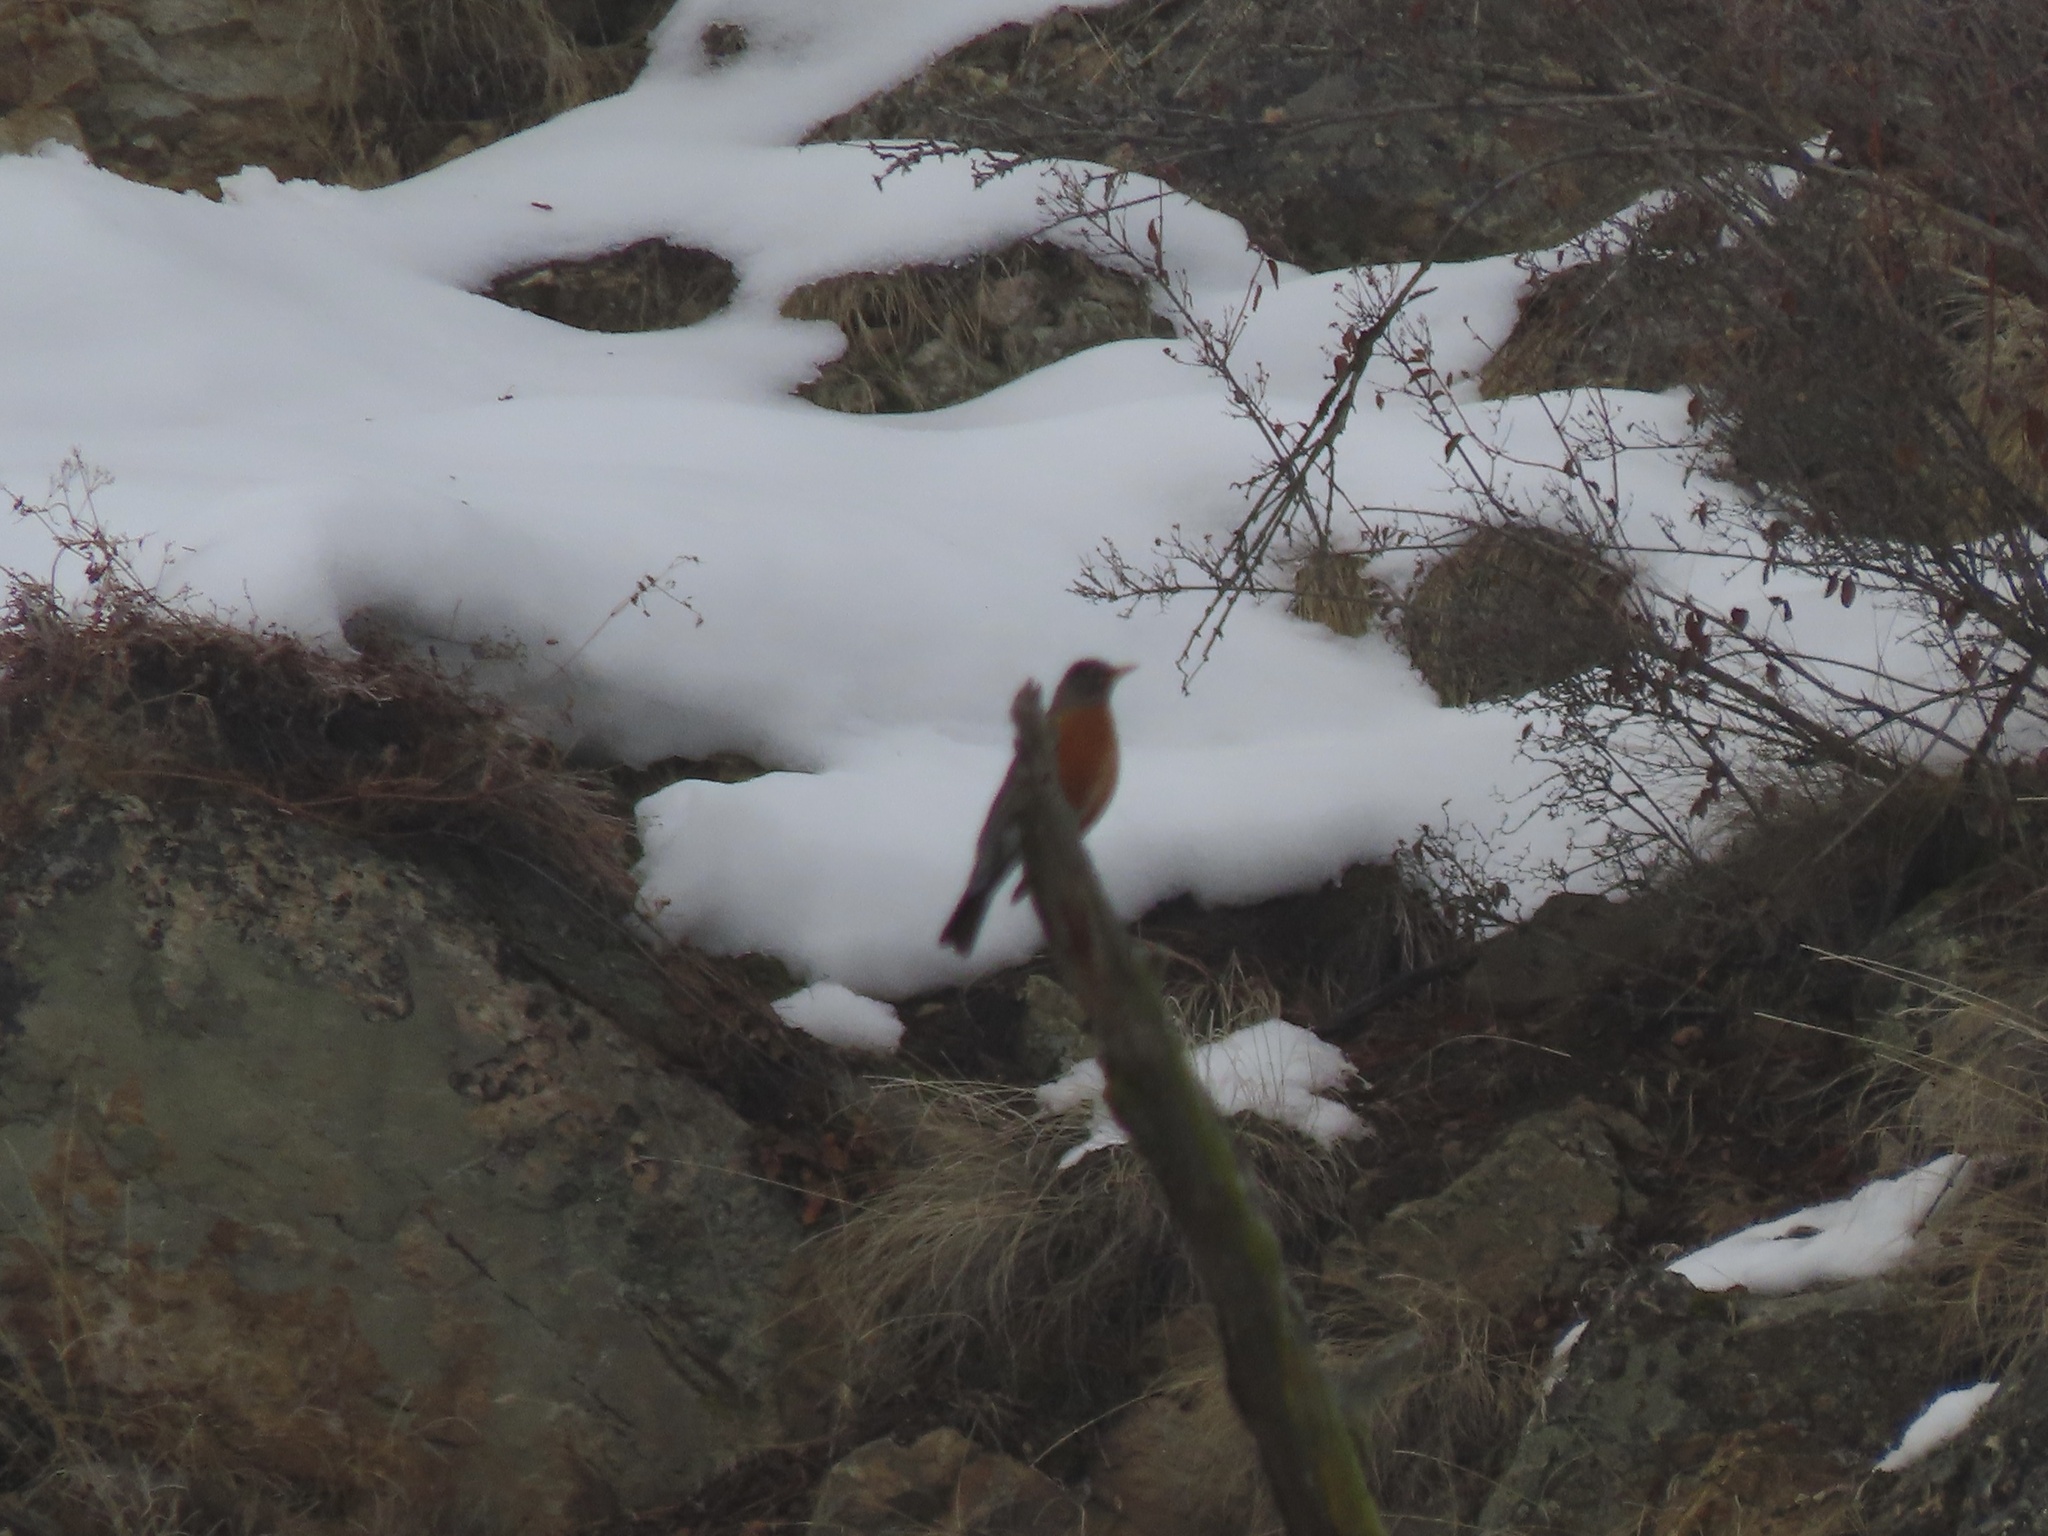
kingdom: Animalia
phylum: Chordata
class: Aves
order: Passeriformes
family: Turdidae
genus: Turdus
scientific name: Turdus migratorius
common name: American robin
